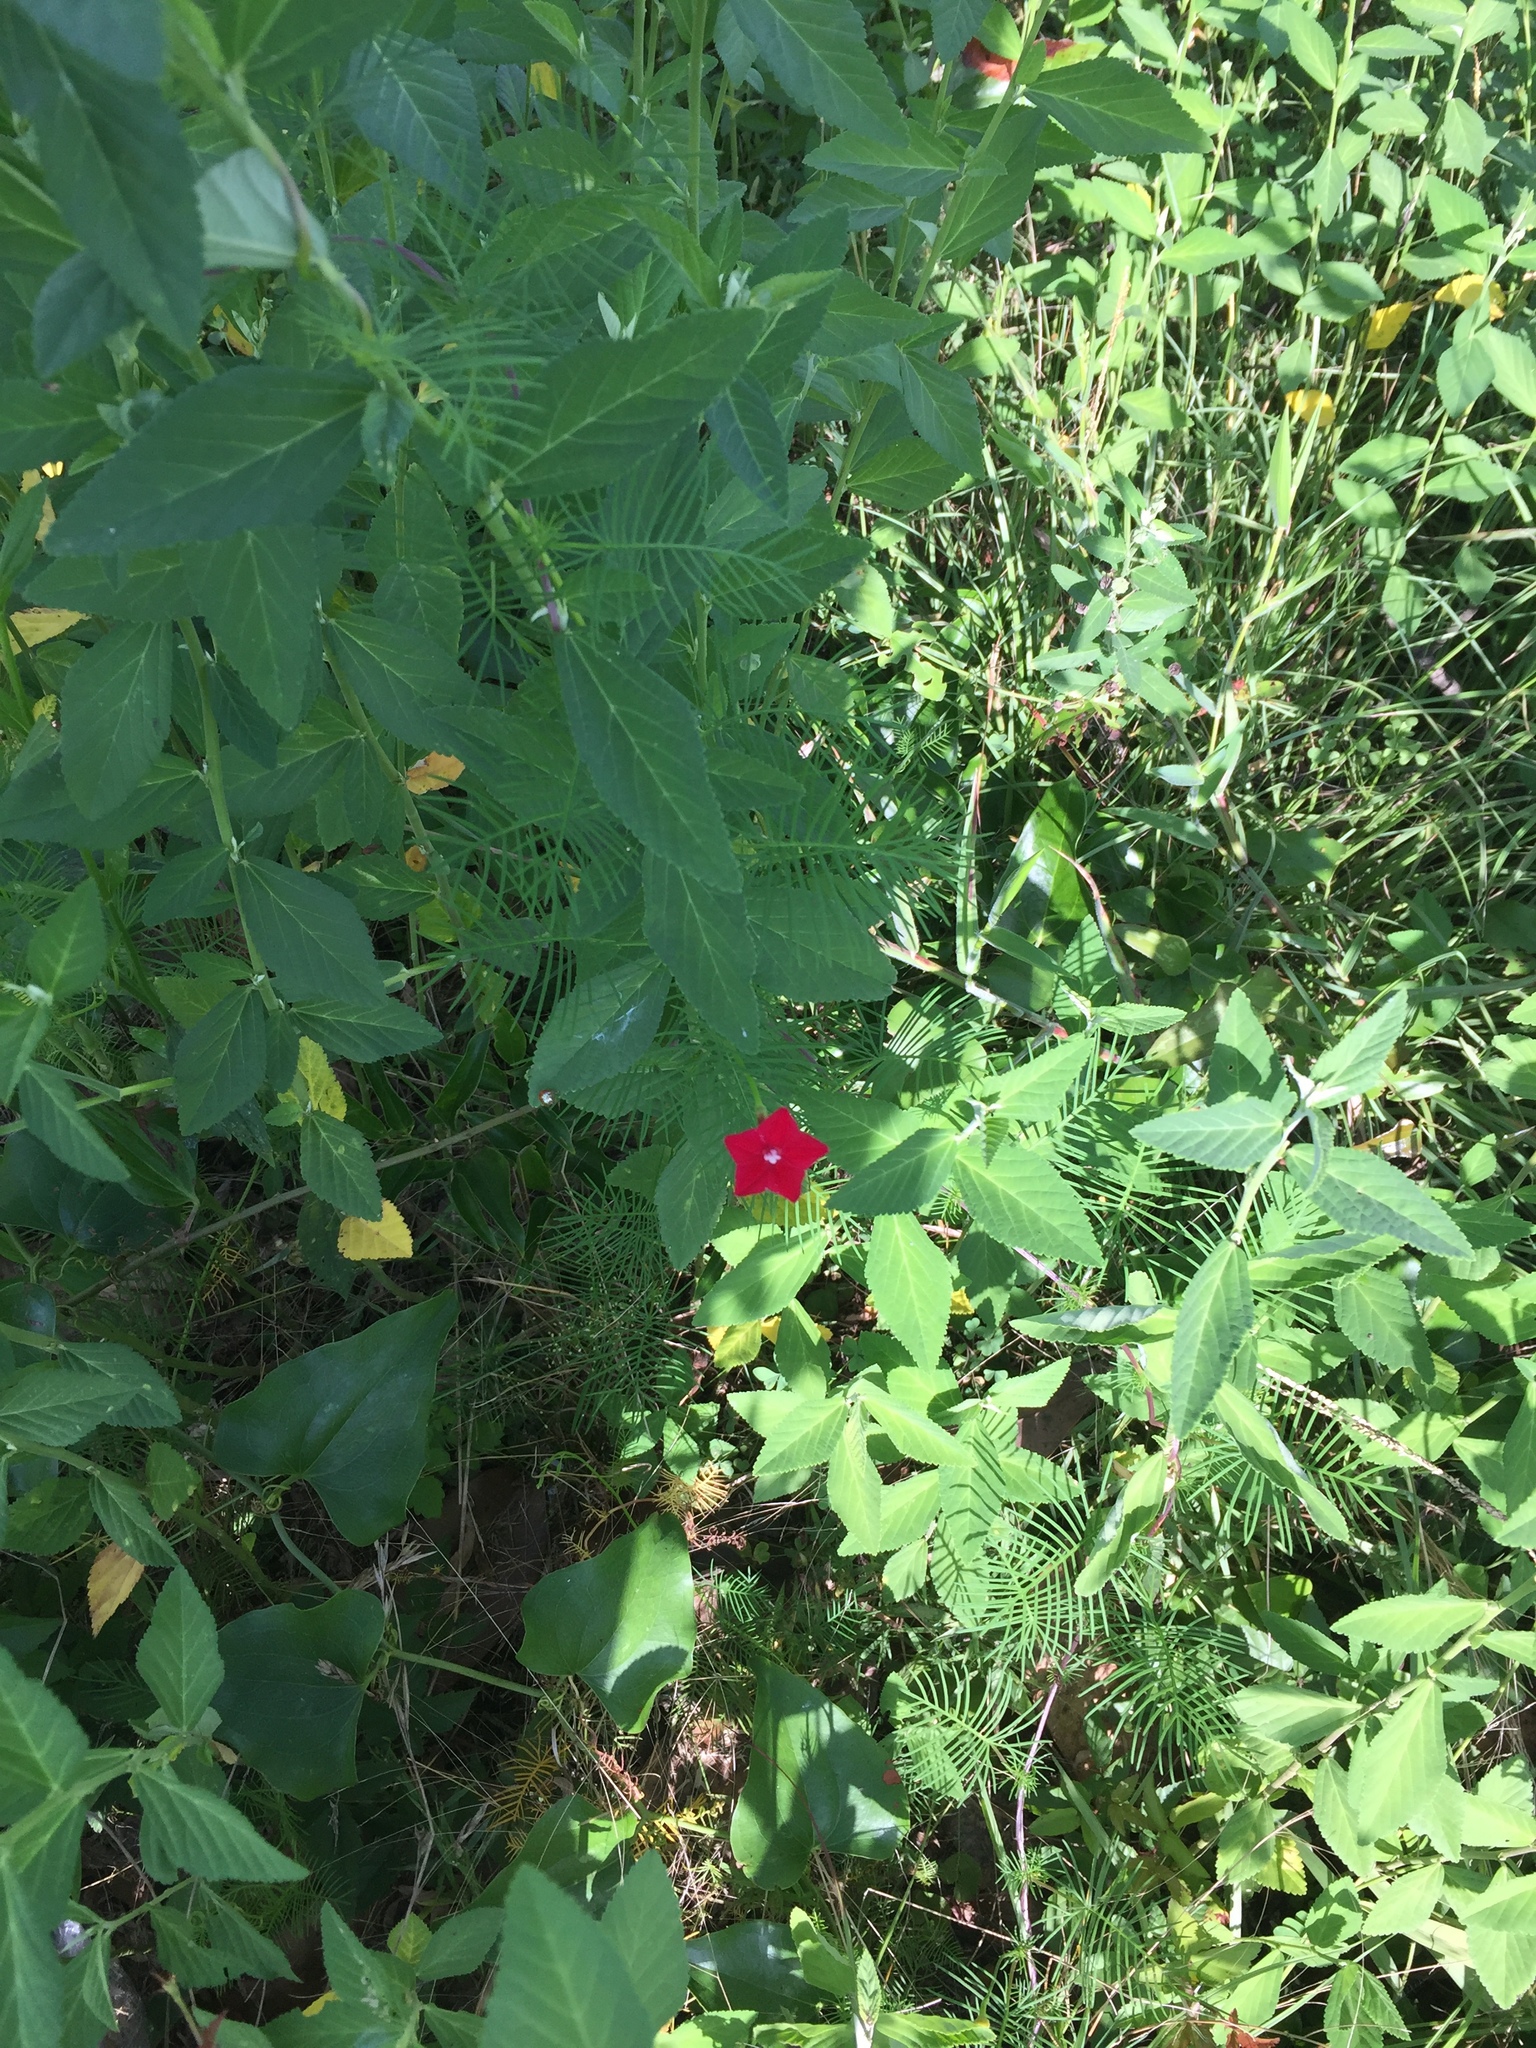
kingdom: Plantae
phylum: Tracheophyta
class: Magnoliopsida
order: Solanales
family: Convolvulaceae
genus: Ipomoea
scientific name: Ipomoea quamoclit
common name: Cypress vine
